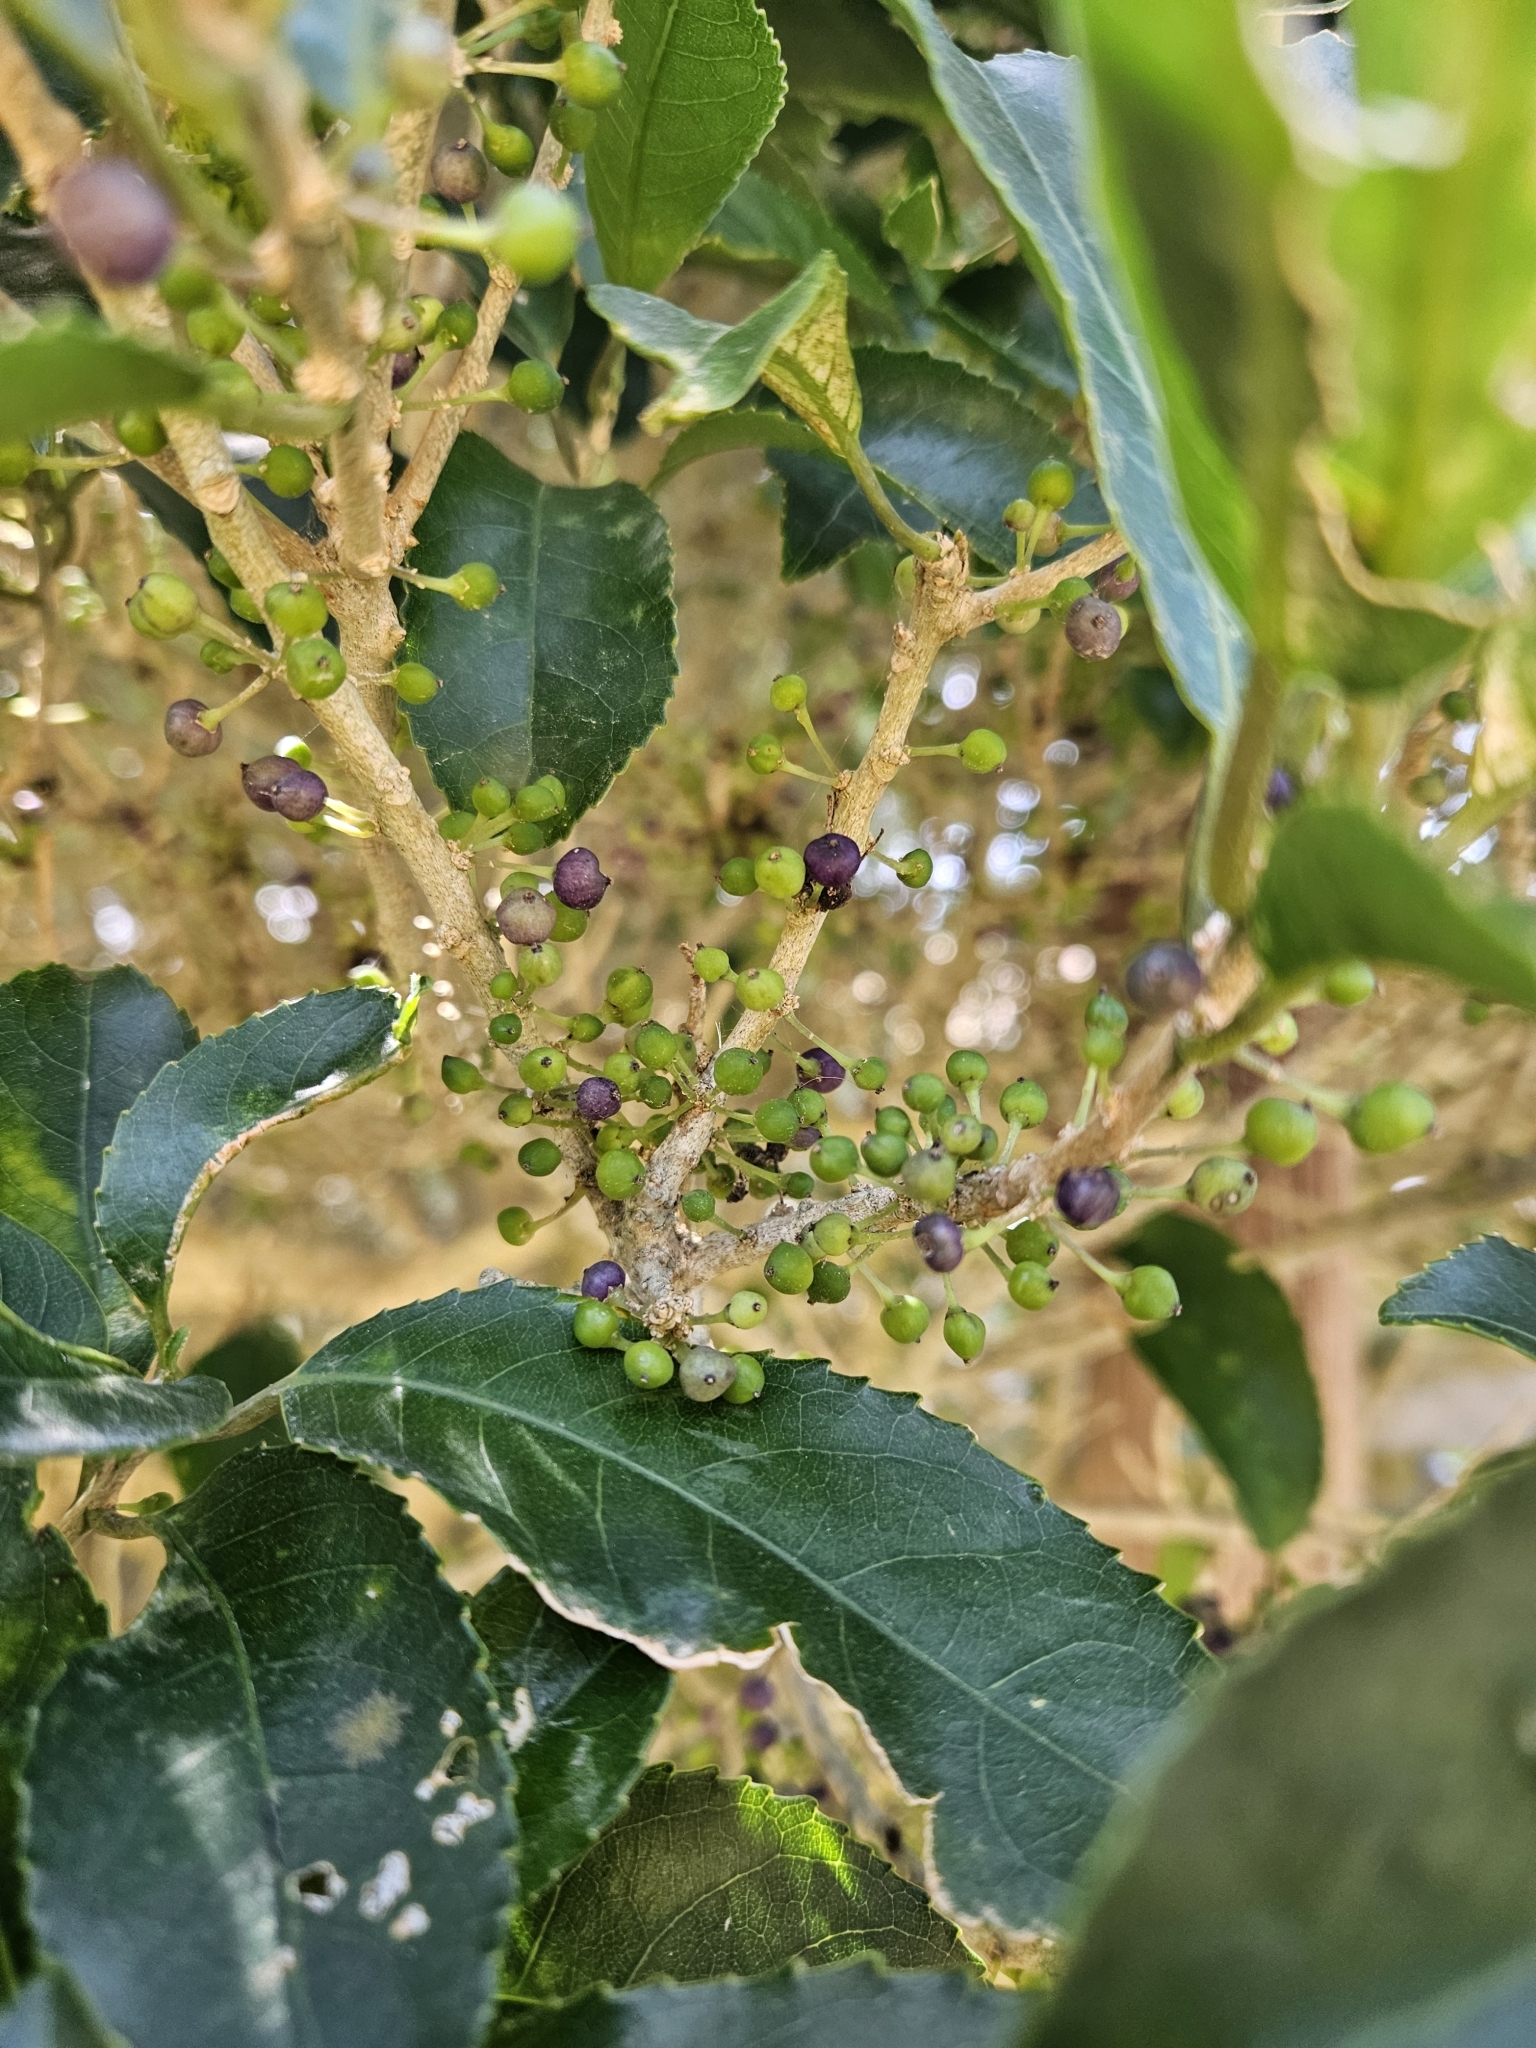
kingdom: Plantae
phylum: Tracheophyta
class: Magnoliopsida
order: Malpighiales
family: Violaceae
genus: Melicytus
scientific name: Melicytus ramiflorus
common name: Mahoe
